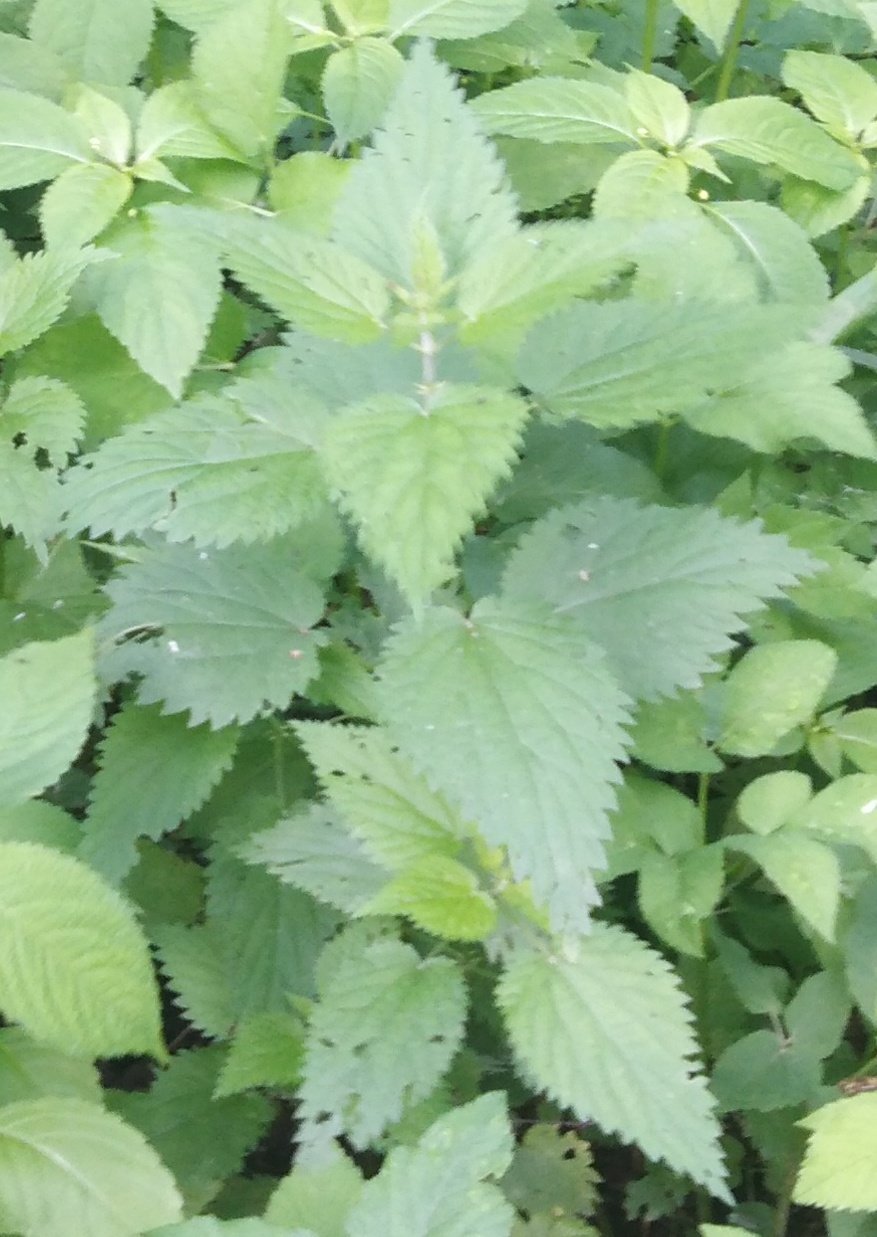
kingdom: Plantae
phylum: Tracheophyta
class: Magnoliopsida
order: Rosales
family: Urticaceae
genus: Urtica
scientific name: Urtica dioica
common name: Common nettle
